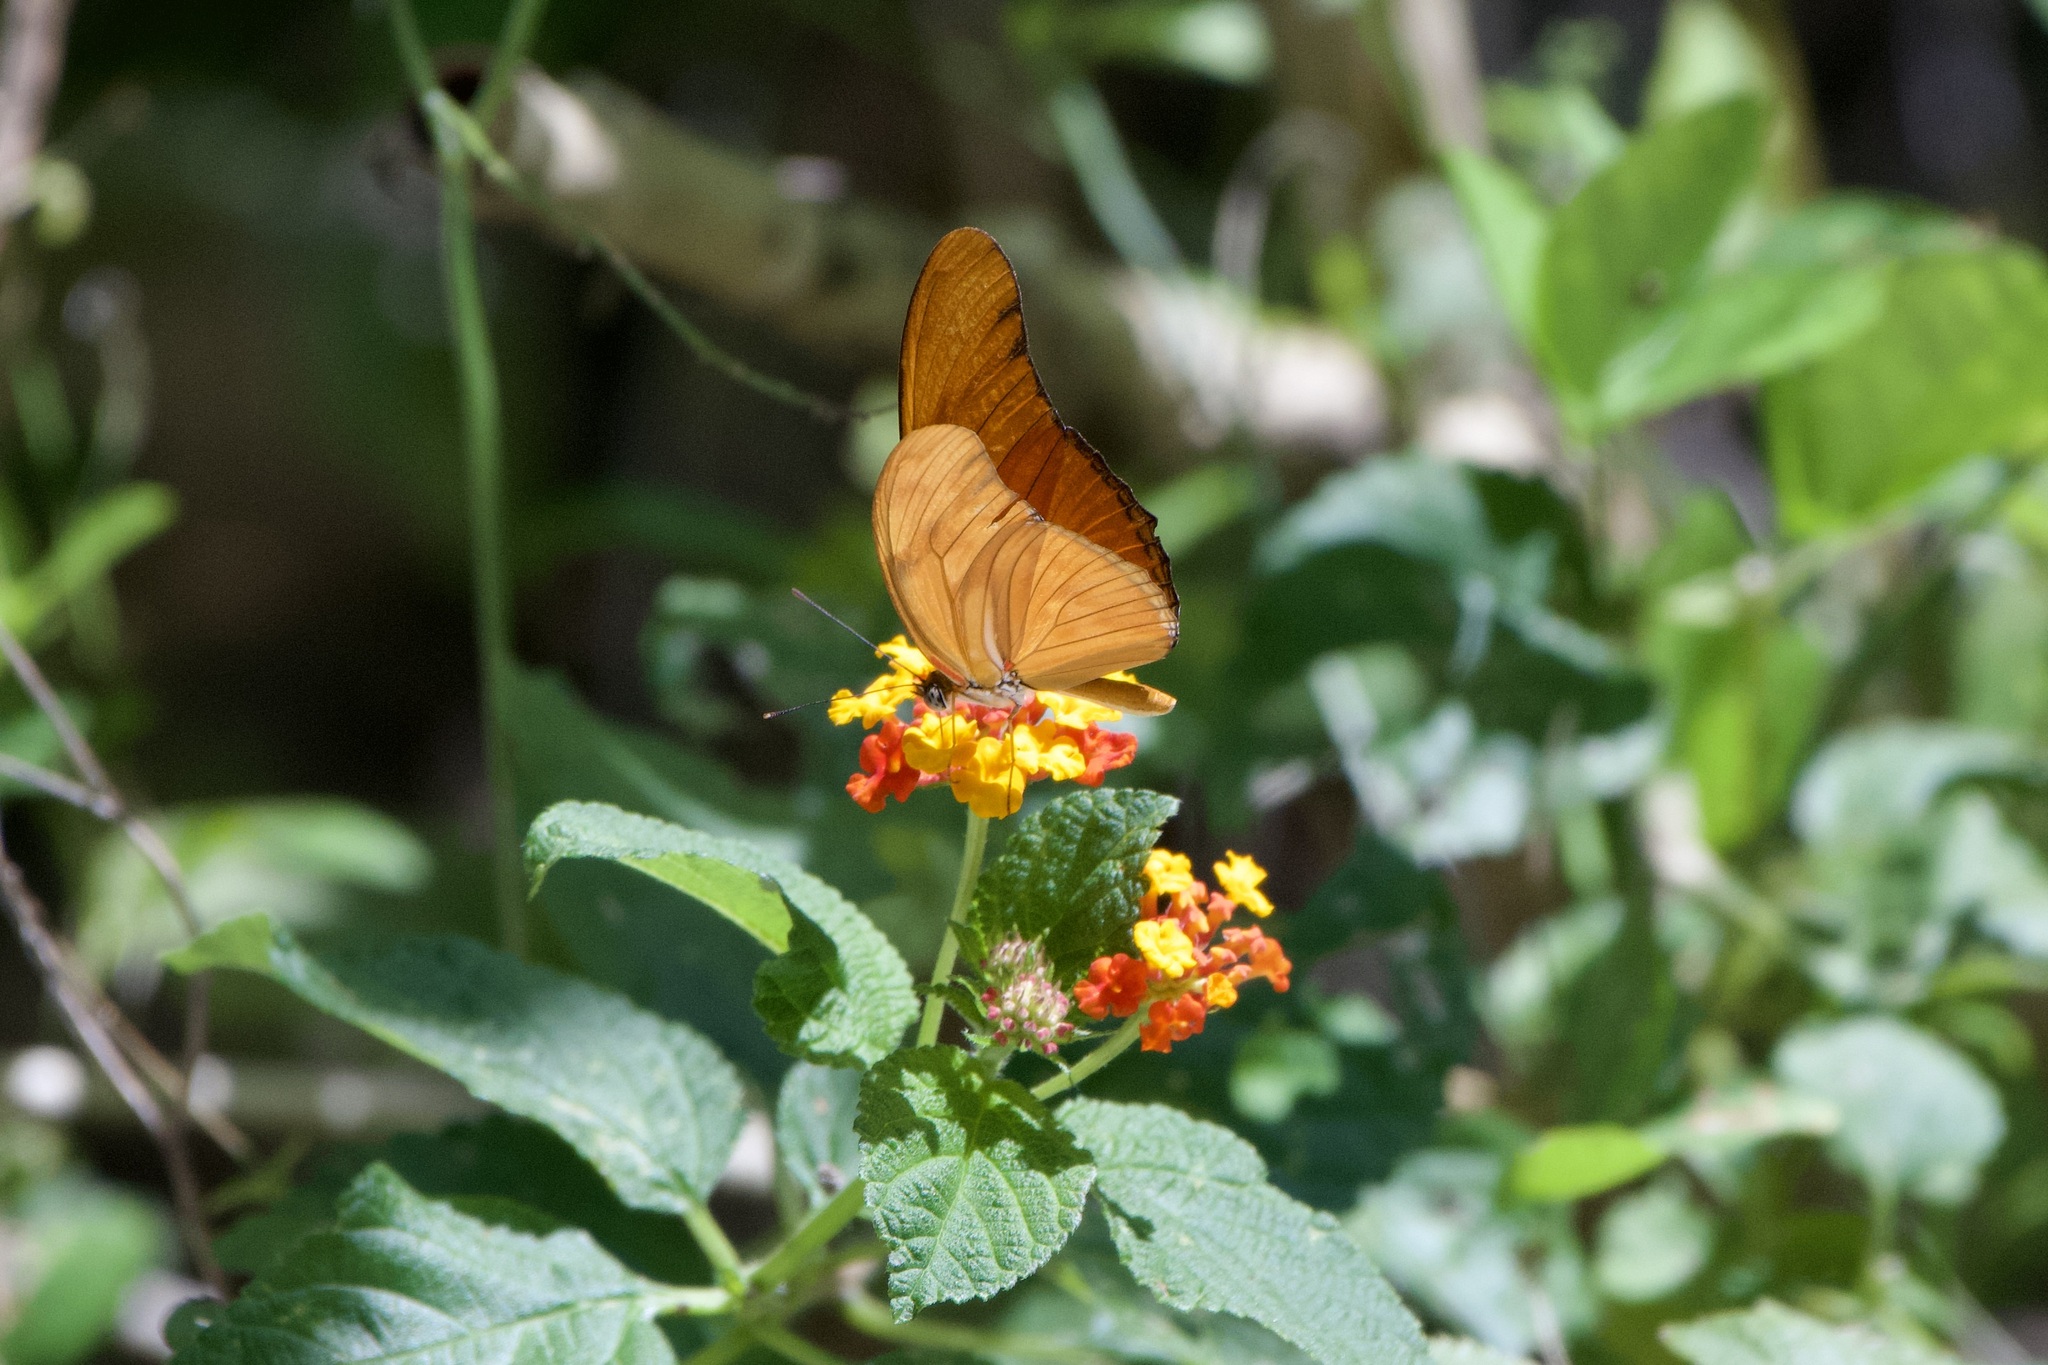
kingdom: Animalia
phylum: Arthropoda
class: Insecta
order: Lepidoptera
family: Nymphalidae
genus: Dryas
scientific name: Dryas iulia
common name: Flambeau
